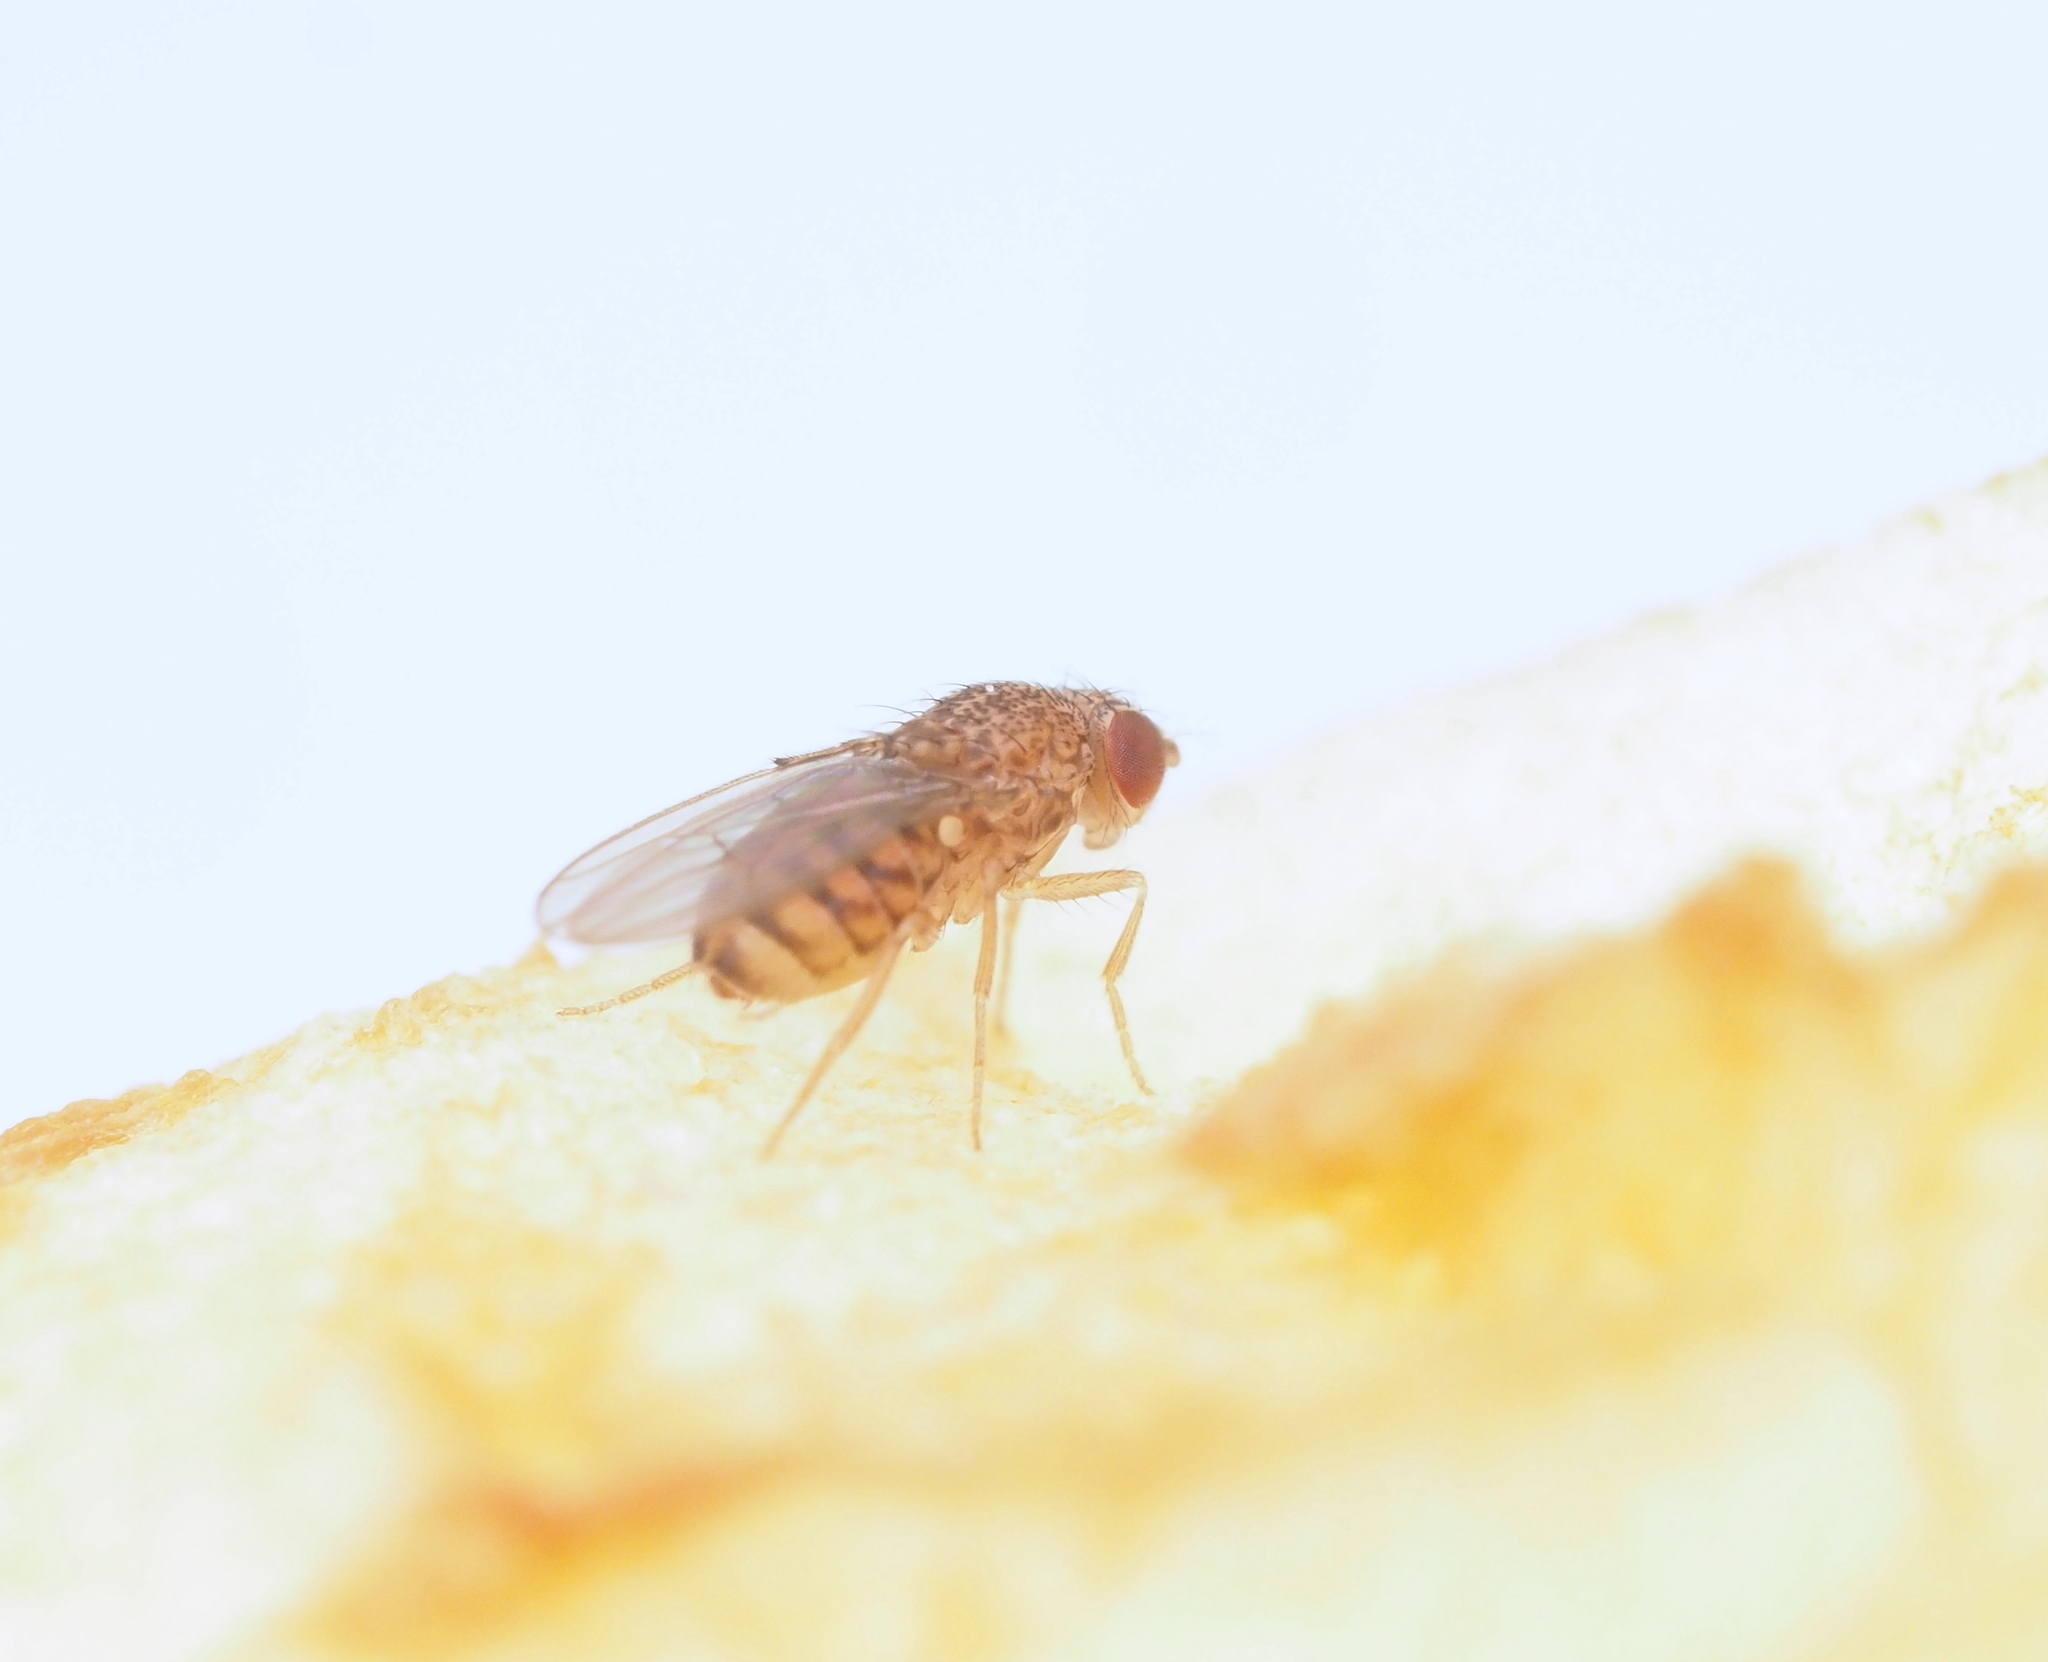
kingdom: Animalia
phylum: Arthropoda
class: Insecta
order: Diptera
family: Drosophilidae
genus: Drosophila
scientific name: Drosophila mercatorum
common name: Pomace fly
